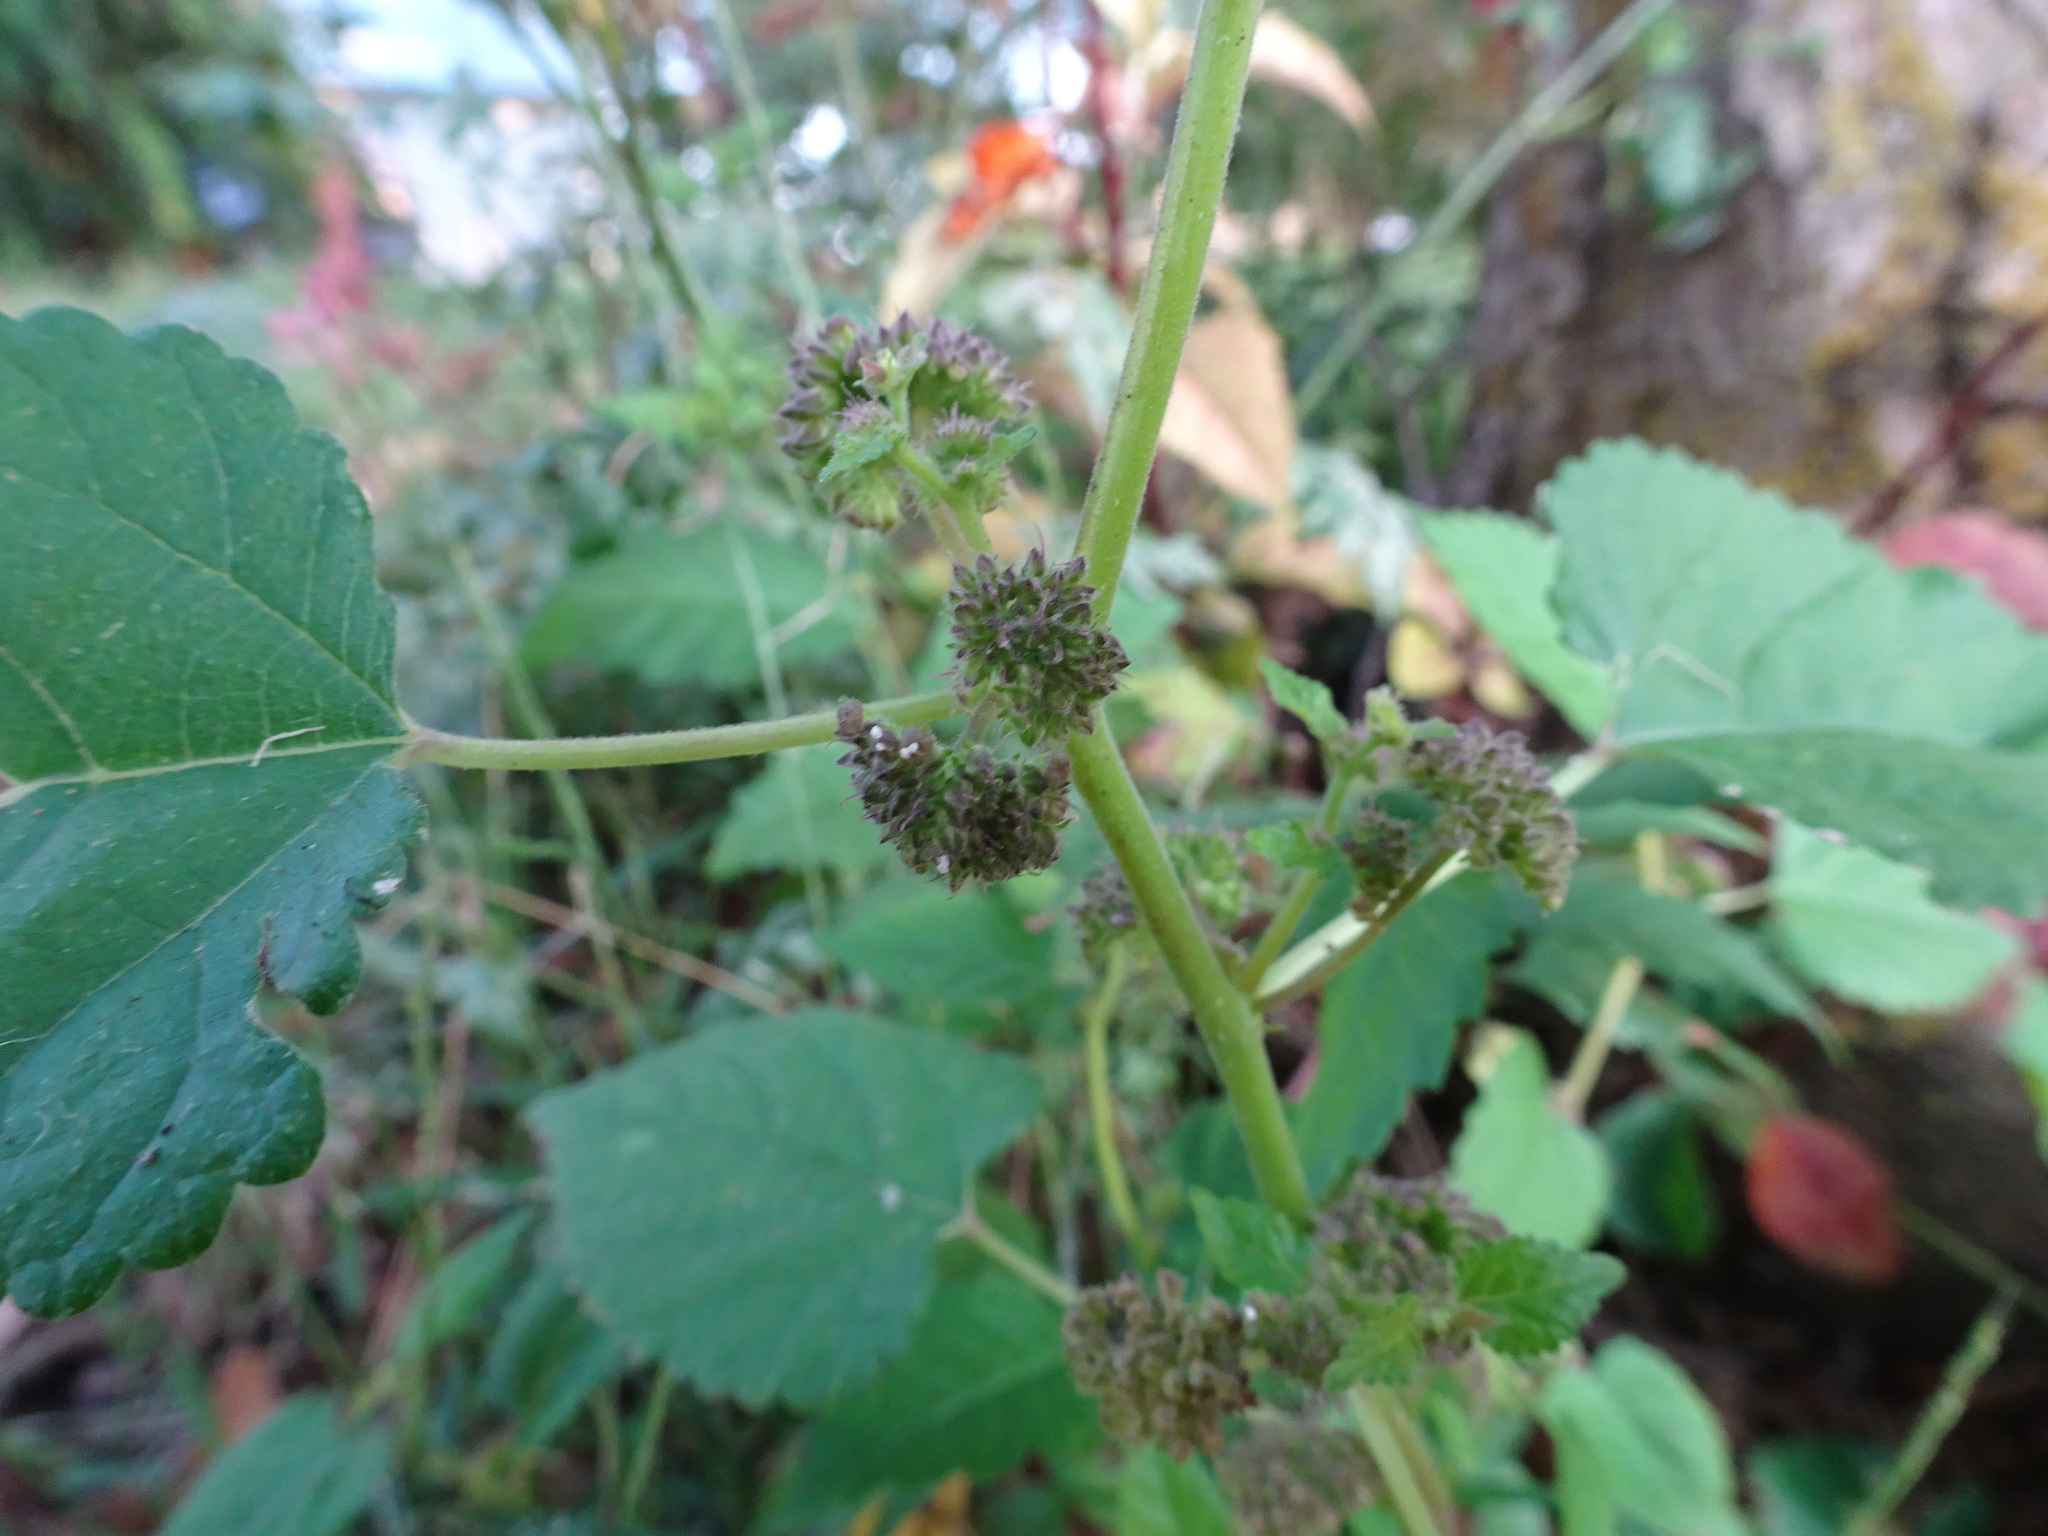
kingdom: Plantae
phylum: Tracheophyta
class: Magnoliopsida
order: Rosales
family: Moraceae
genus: Fatoua
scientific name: Fatoua villosa
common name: Hairy crabweed
